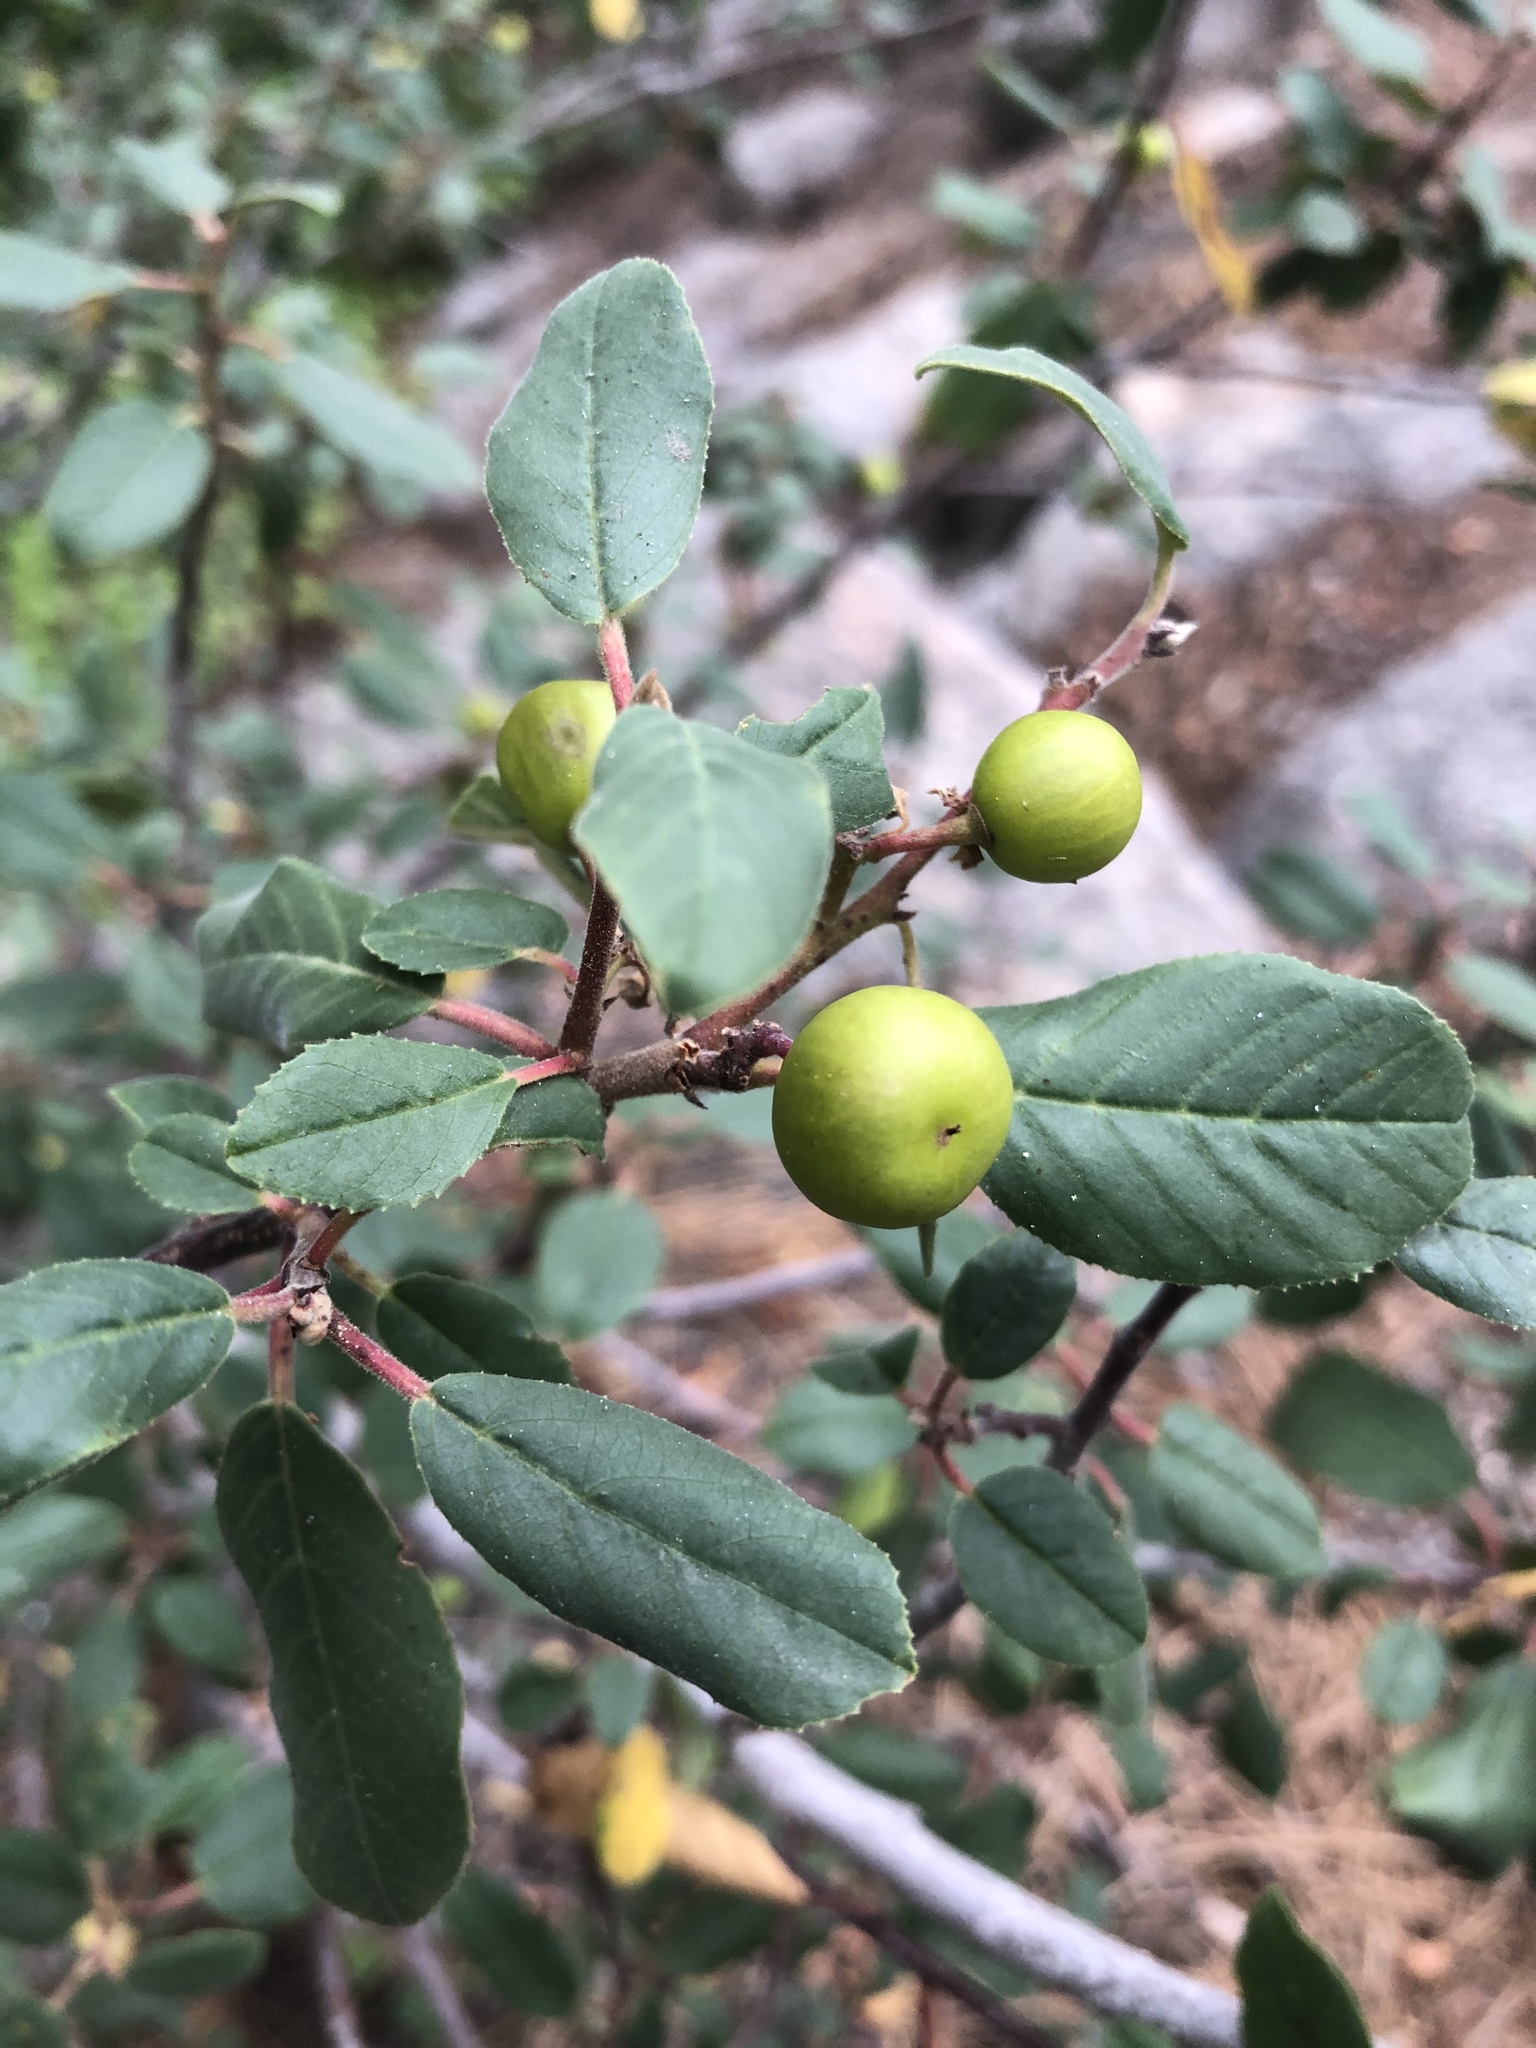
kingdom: Plantae
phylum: Tracheophyta
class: Magnoliopsida
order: Rosales
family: Rhamnaceae
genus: Frangula
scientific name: Frangula californica
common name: California buckthorn
